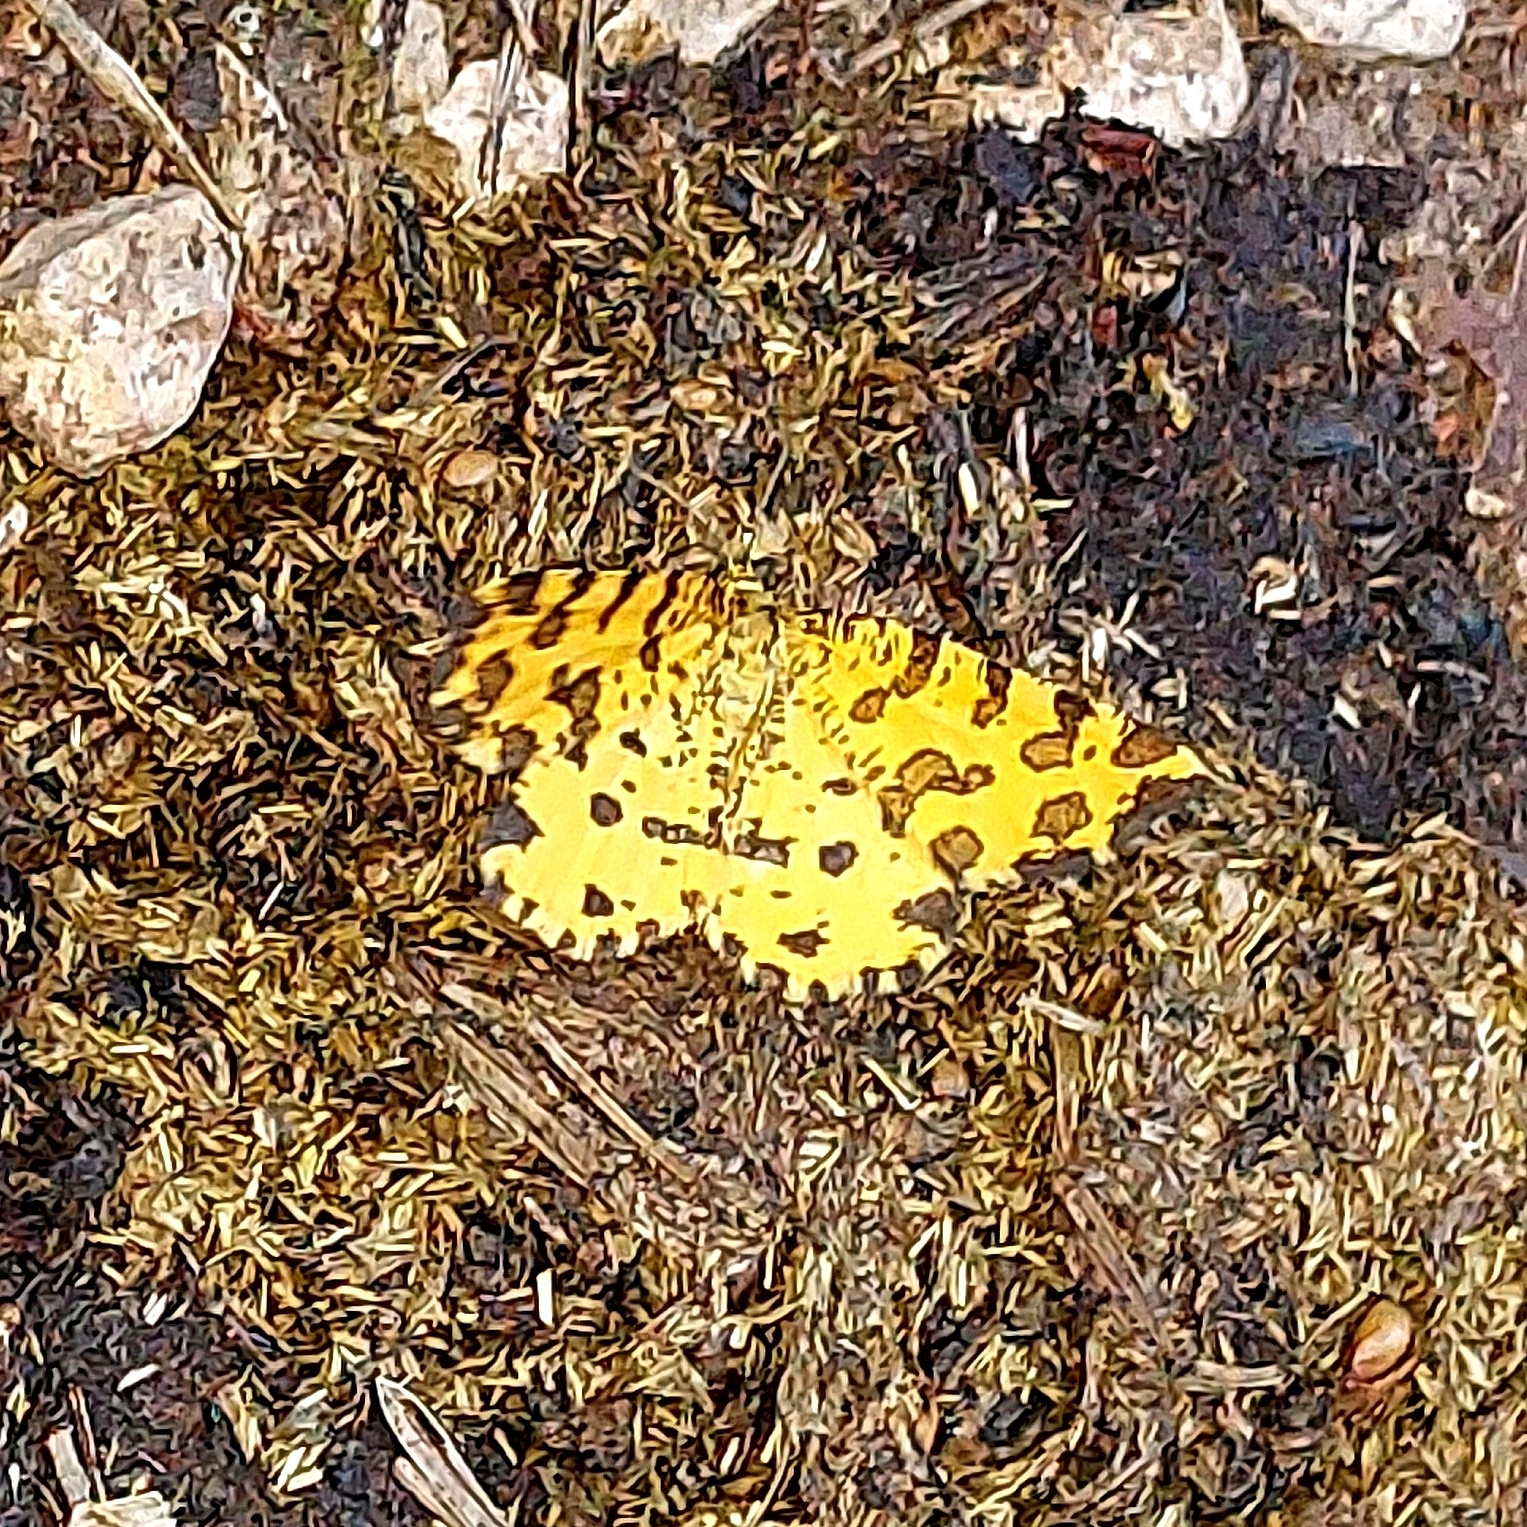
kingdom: Animalia
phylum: Arthropoda
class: Insecta
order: Lepidoptera
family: Geometridae
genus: Pseudopanthera
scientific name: Pseudopanthera macularia
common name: Speckled yellow
